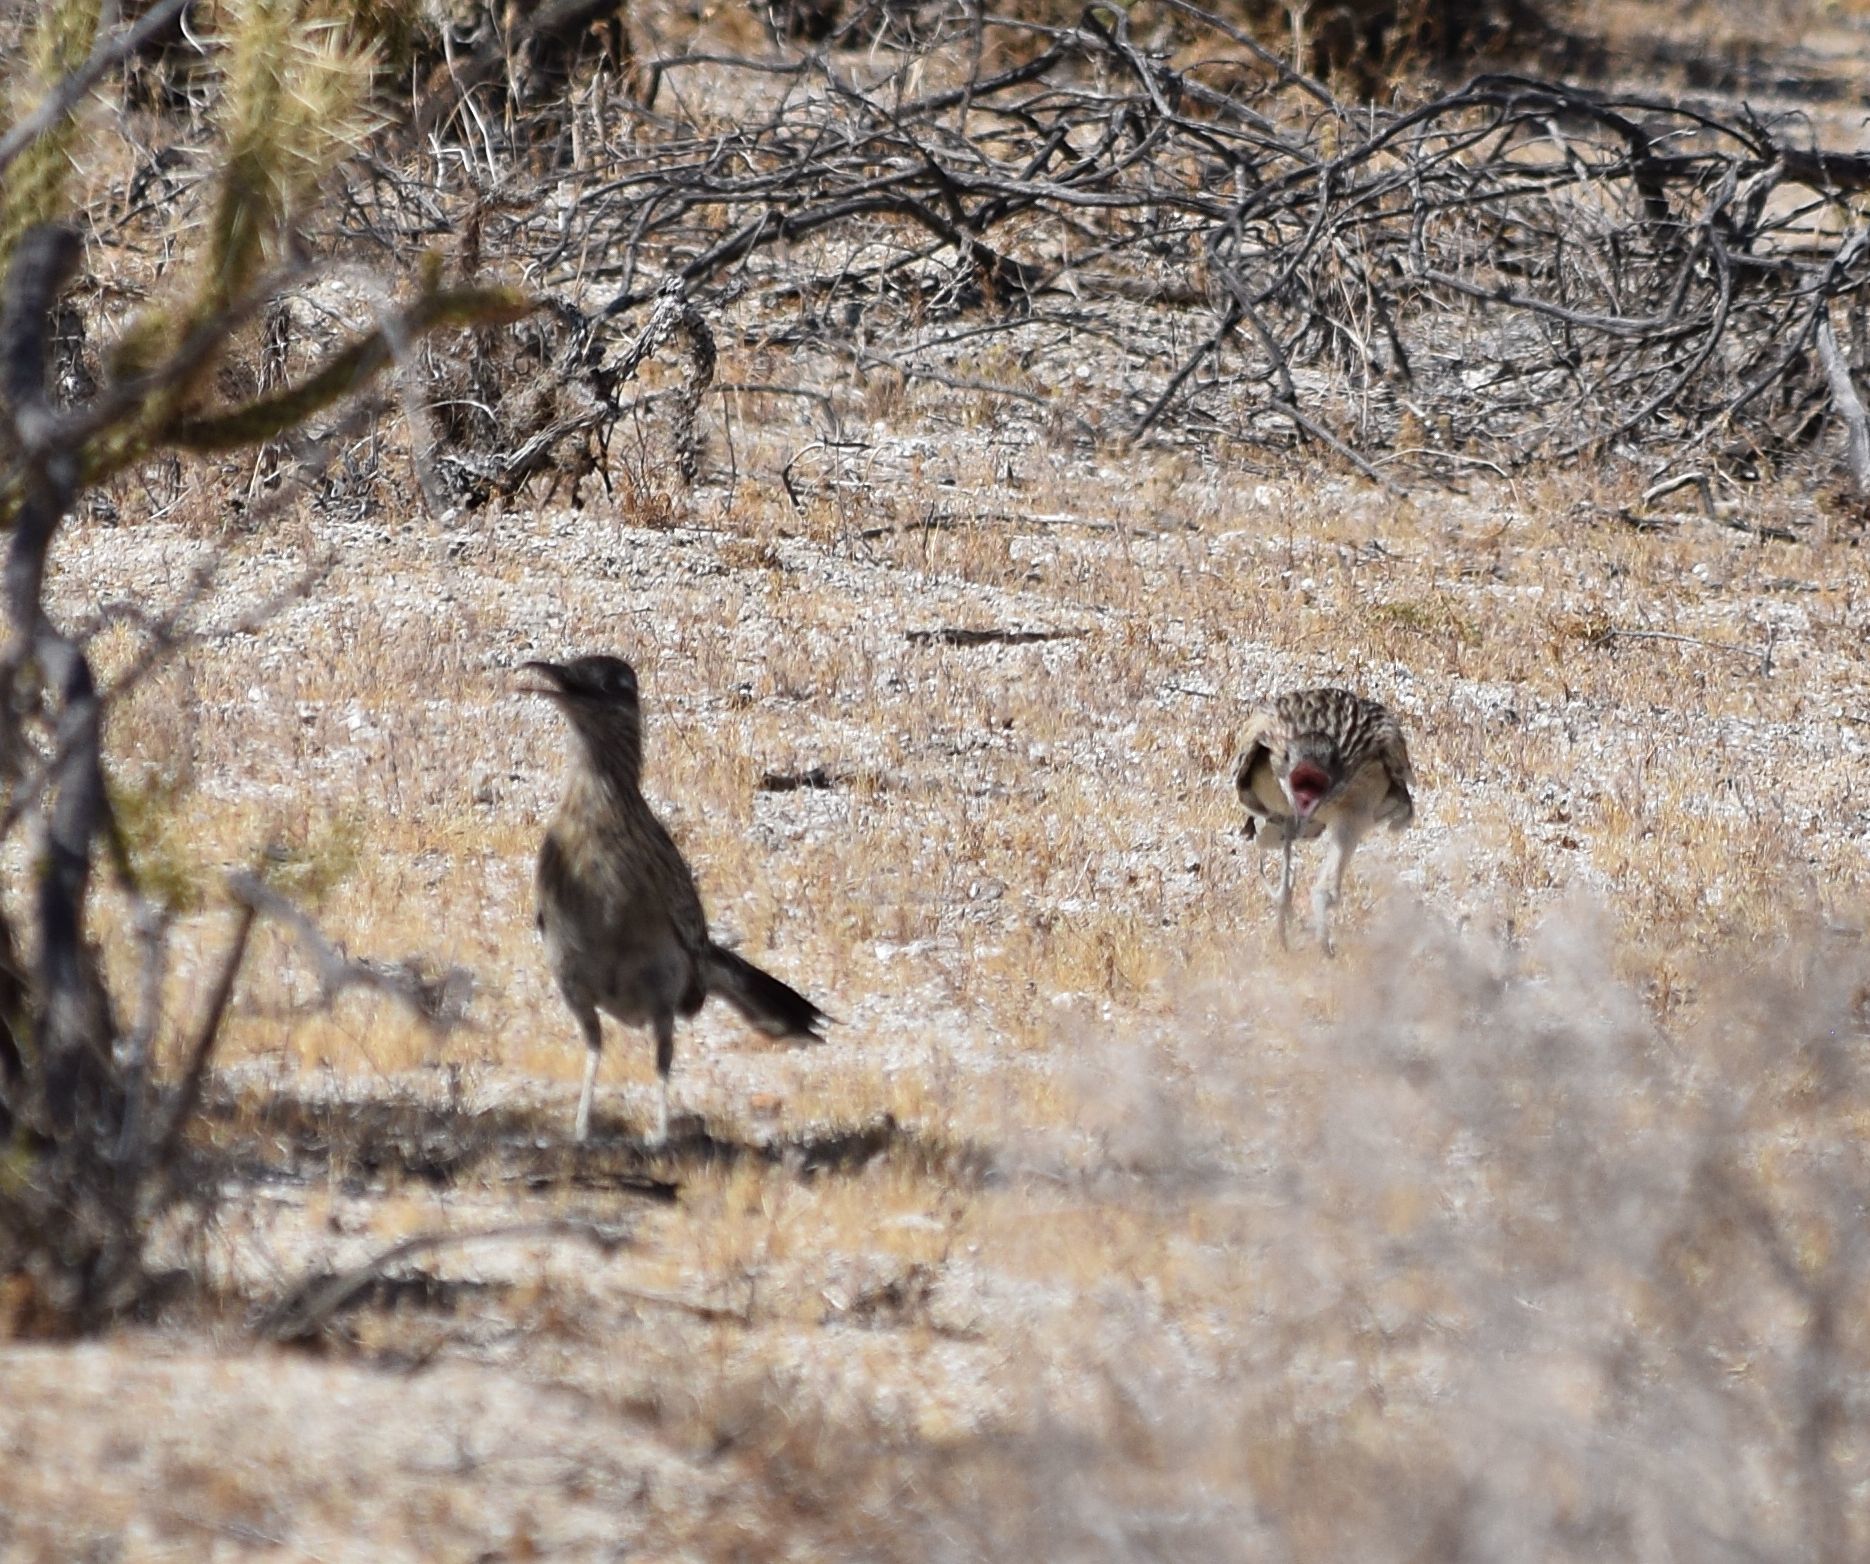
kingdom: Animalia
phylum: Chordata
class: Aves
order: Cuculiformes
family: Cuculidae
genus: Geococcyx
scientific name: Geococcyx californianus
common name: Greater roadrunner
